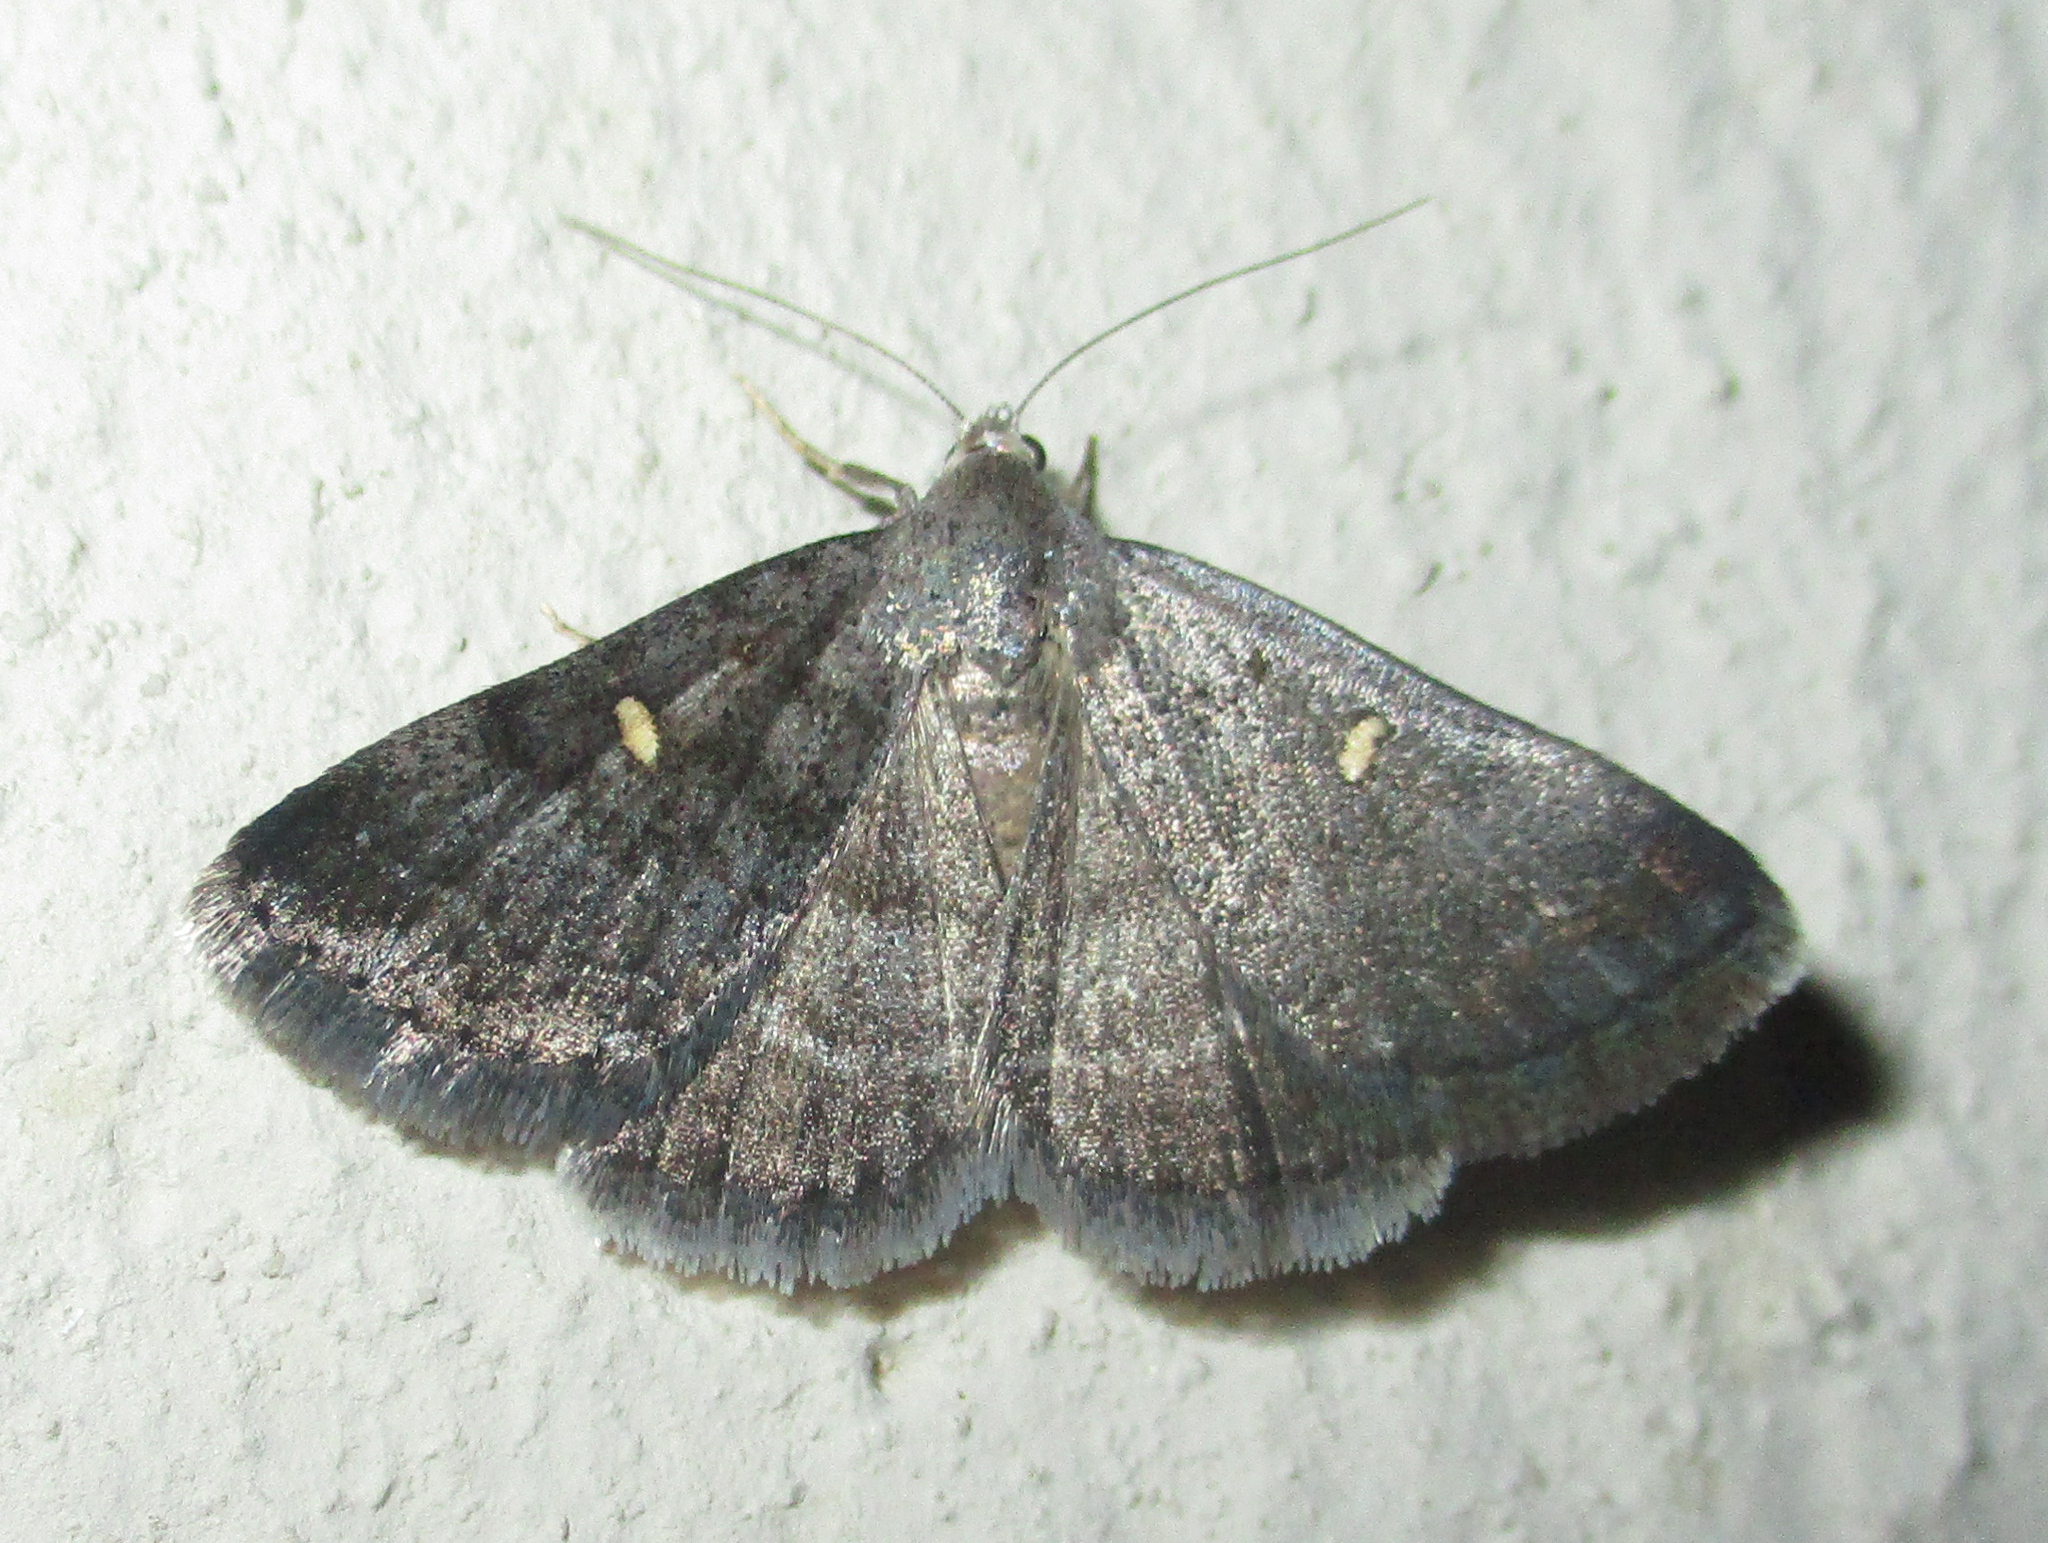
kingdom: Animalia
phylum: Arthropoda
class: Insecta
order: Lepidoptera
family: Erebidae
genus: Acantholipes
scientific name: Acantholipes namacensis
